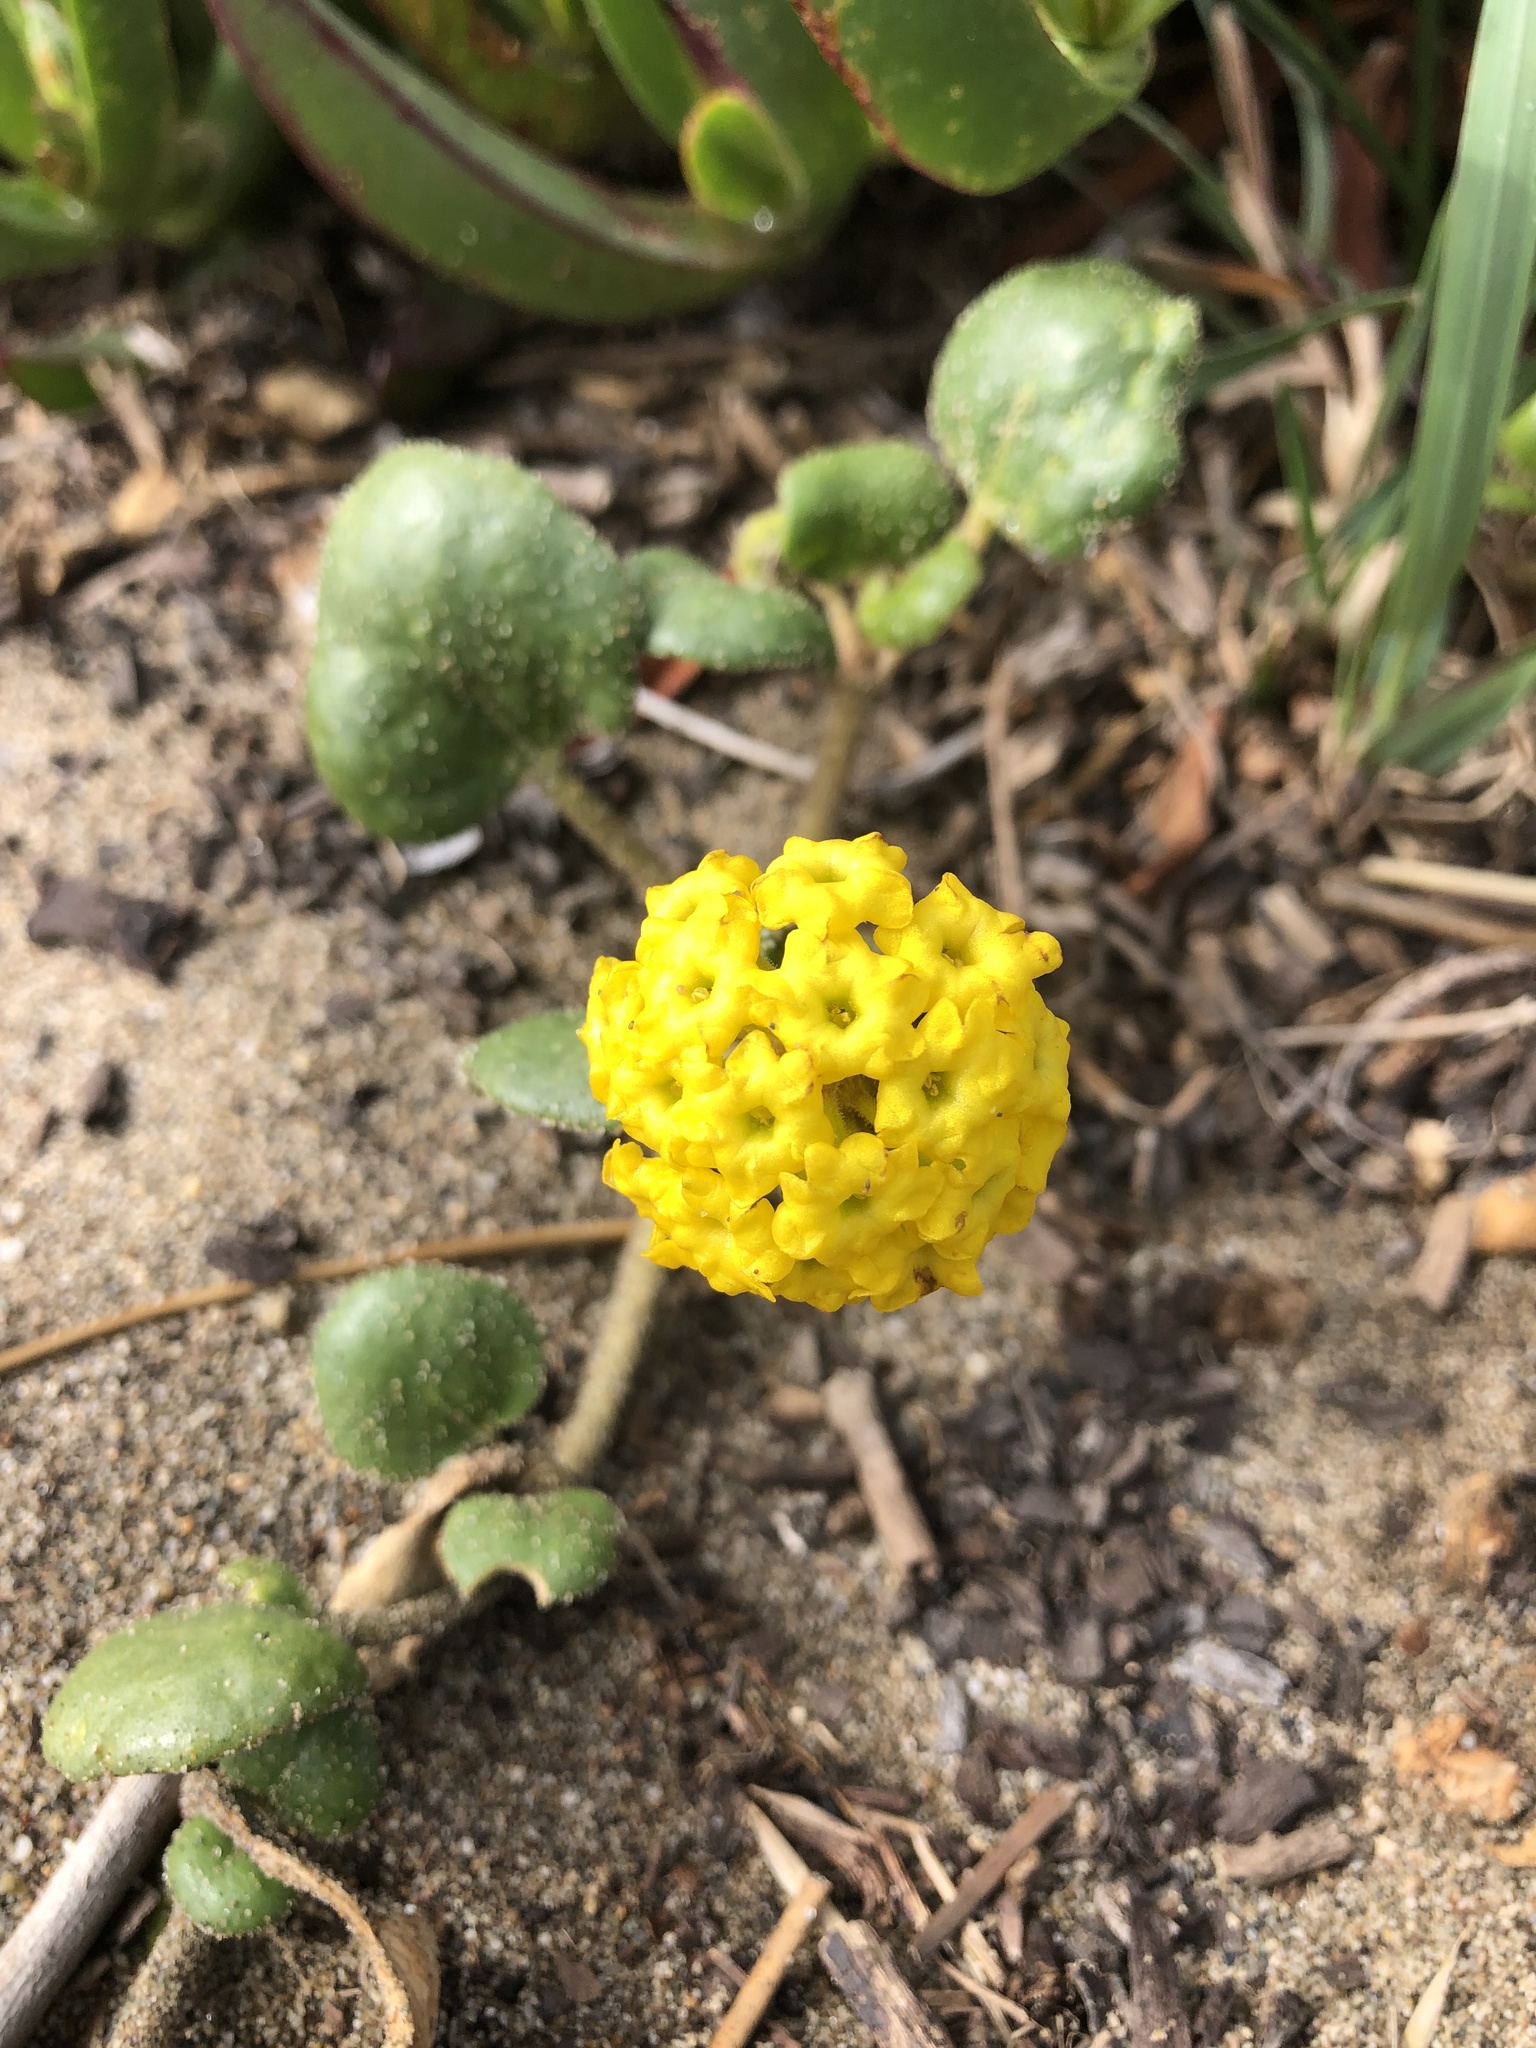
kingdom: Plantae
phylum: Tracheophyta
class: Magnoliopsida
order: Caryophyllales
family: Nyctaginaceae
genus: Abronia
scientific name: Abronia latifolia
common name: Yellow sand-verbena
